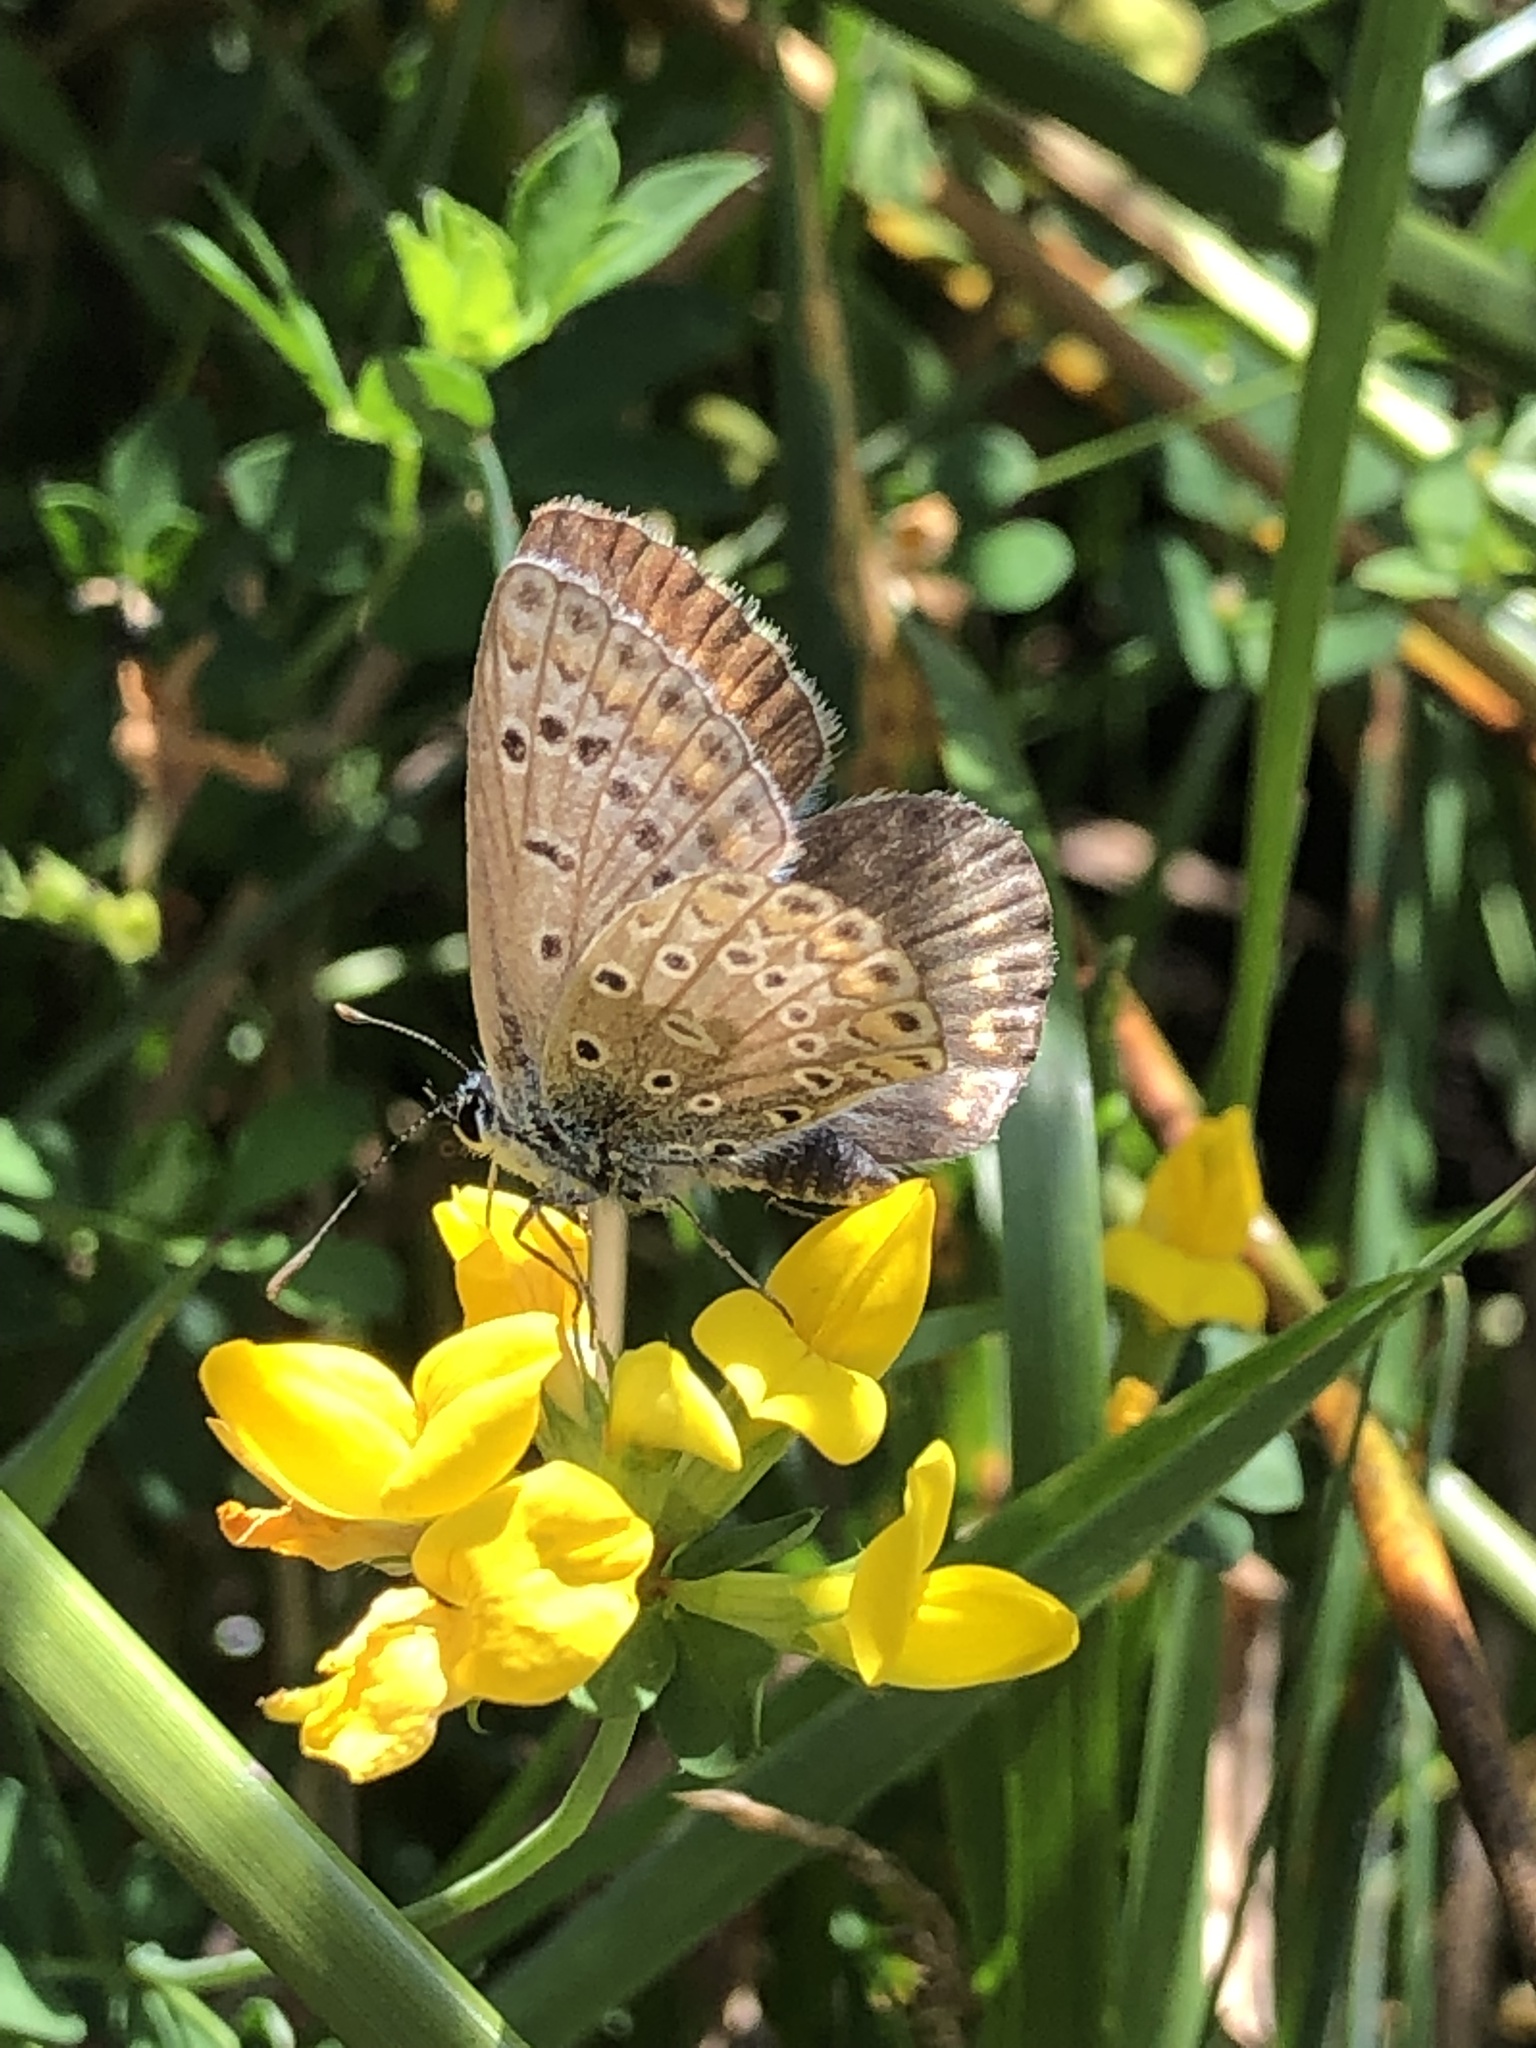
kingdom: Animalia
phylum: Arthropoda
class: Insecta
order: Lepidoptera
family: Lycaenidae
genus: Polyommatus
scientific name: Polyommatus icarus
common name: Common blue
